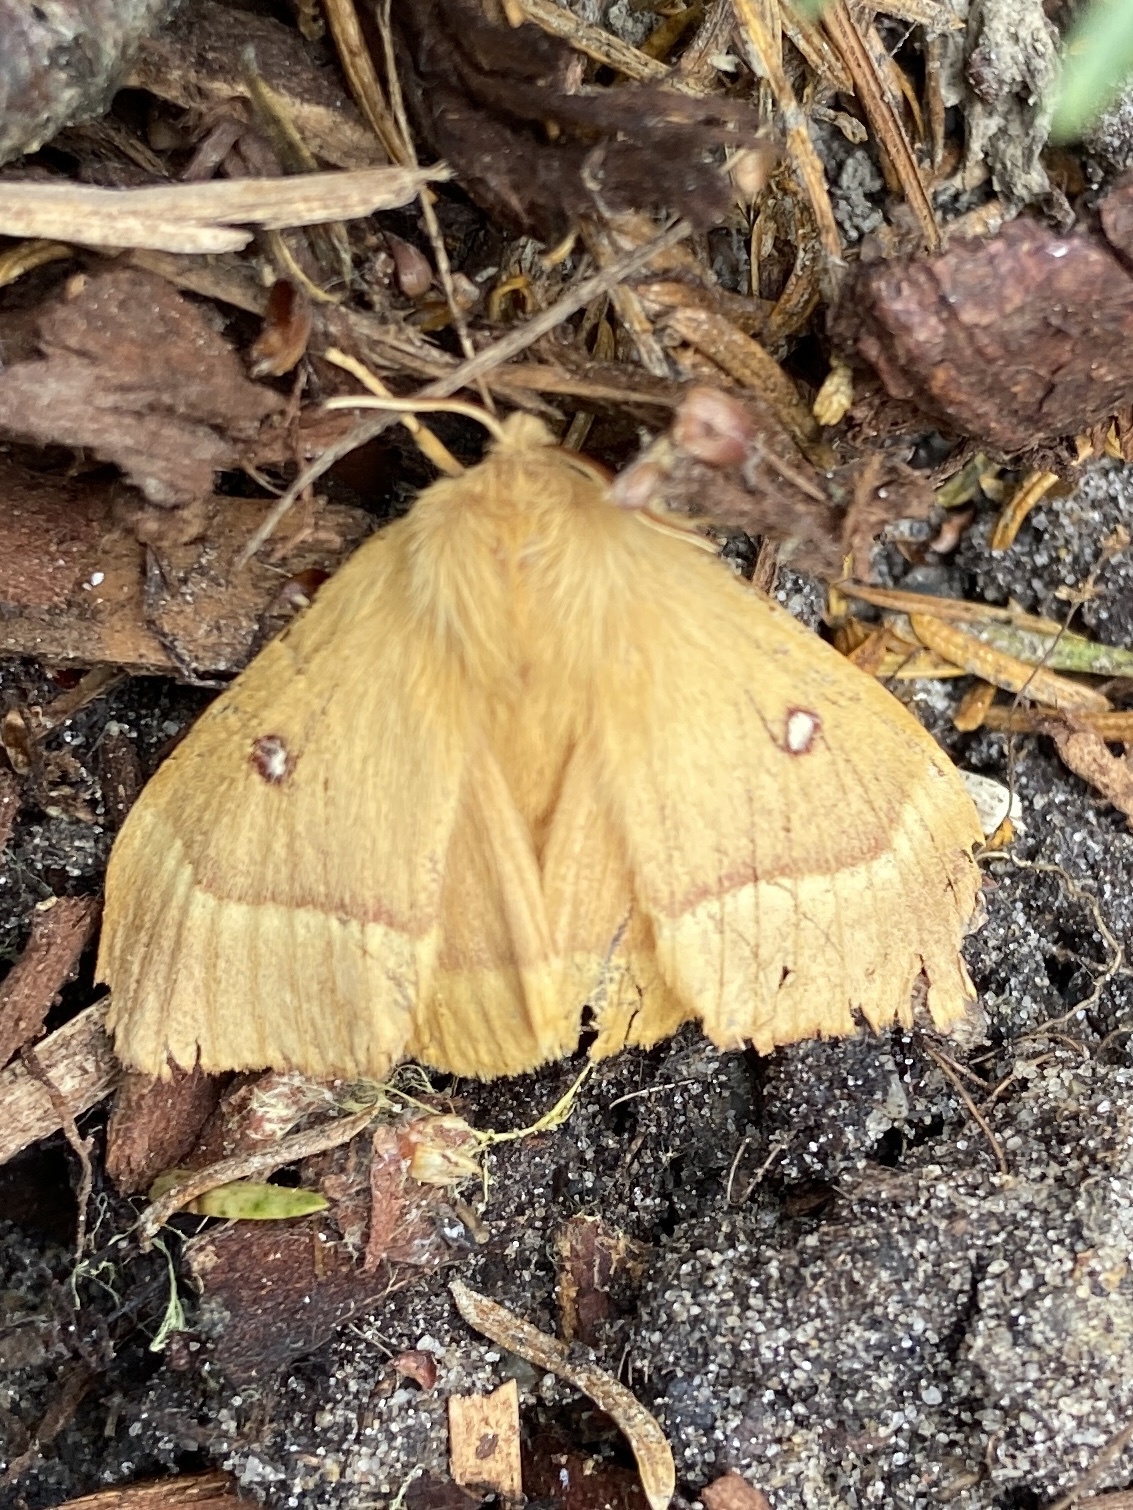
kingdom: Animalia
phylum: Arthropoda
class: Insecta
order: Lepidoptera
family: Lasiocampidae
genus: Lasiocampa
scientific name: Lasiocampa quercus
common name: Oak eggar
